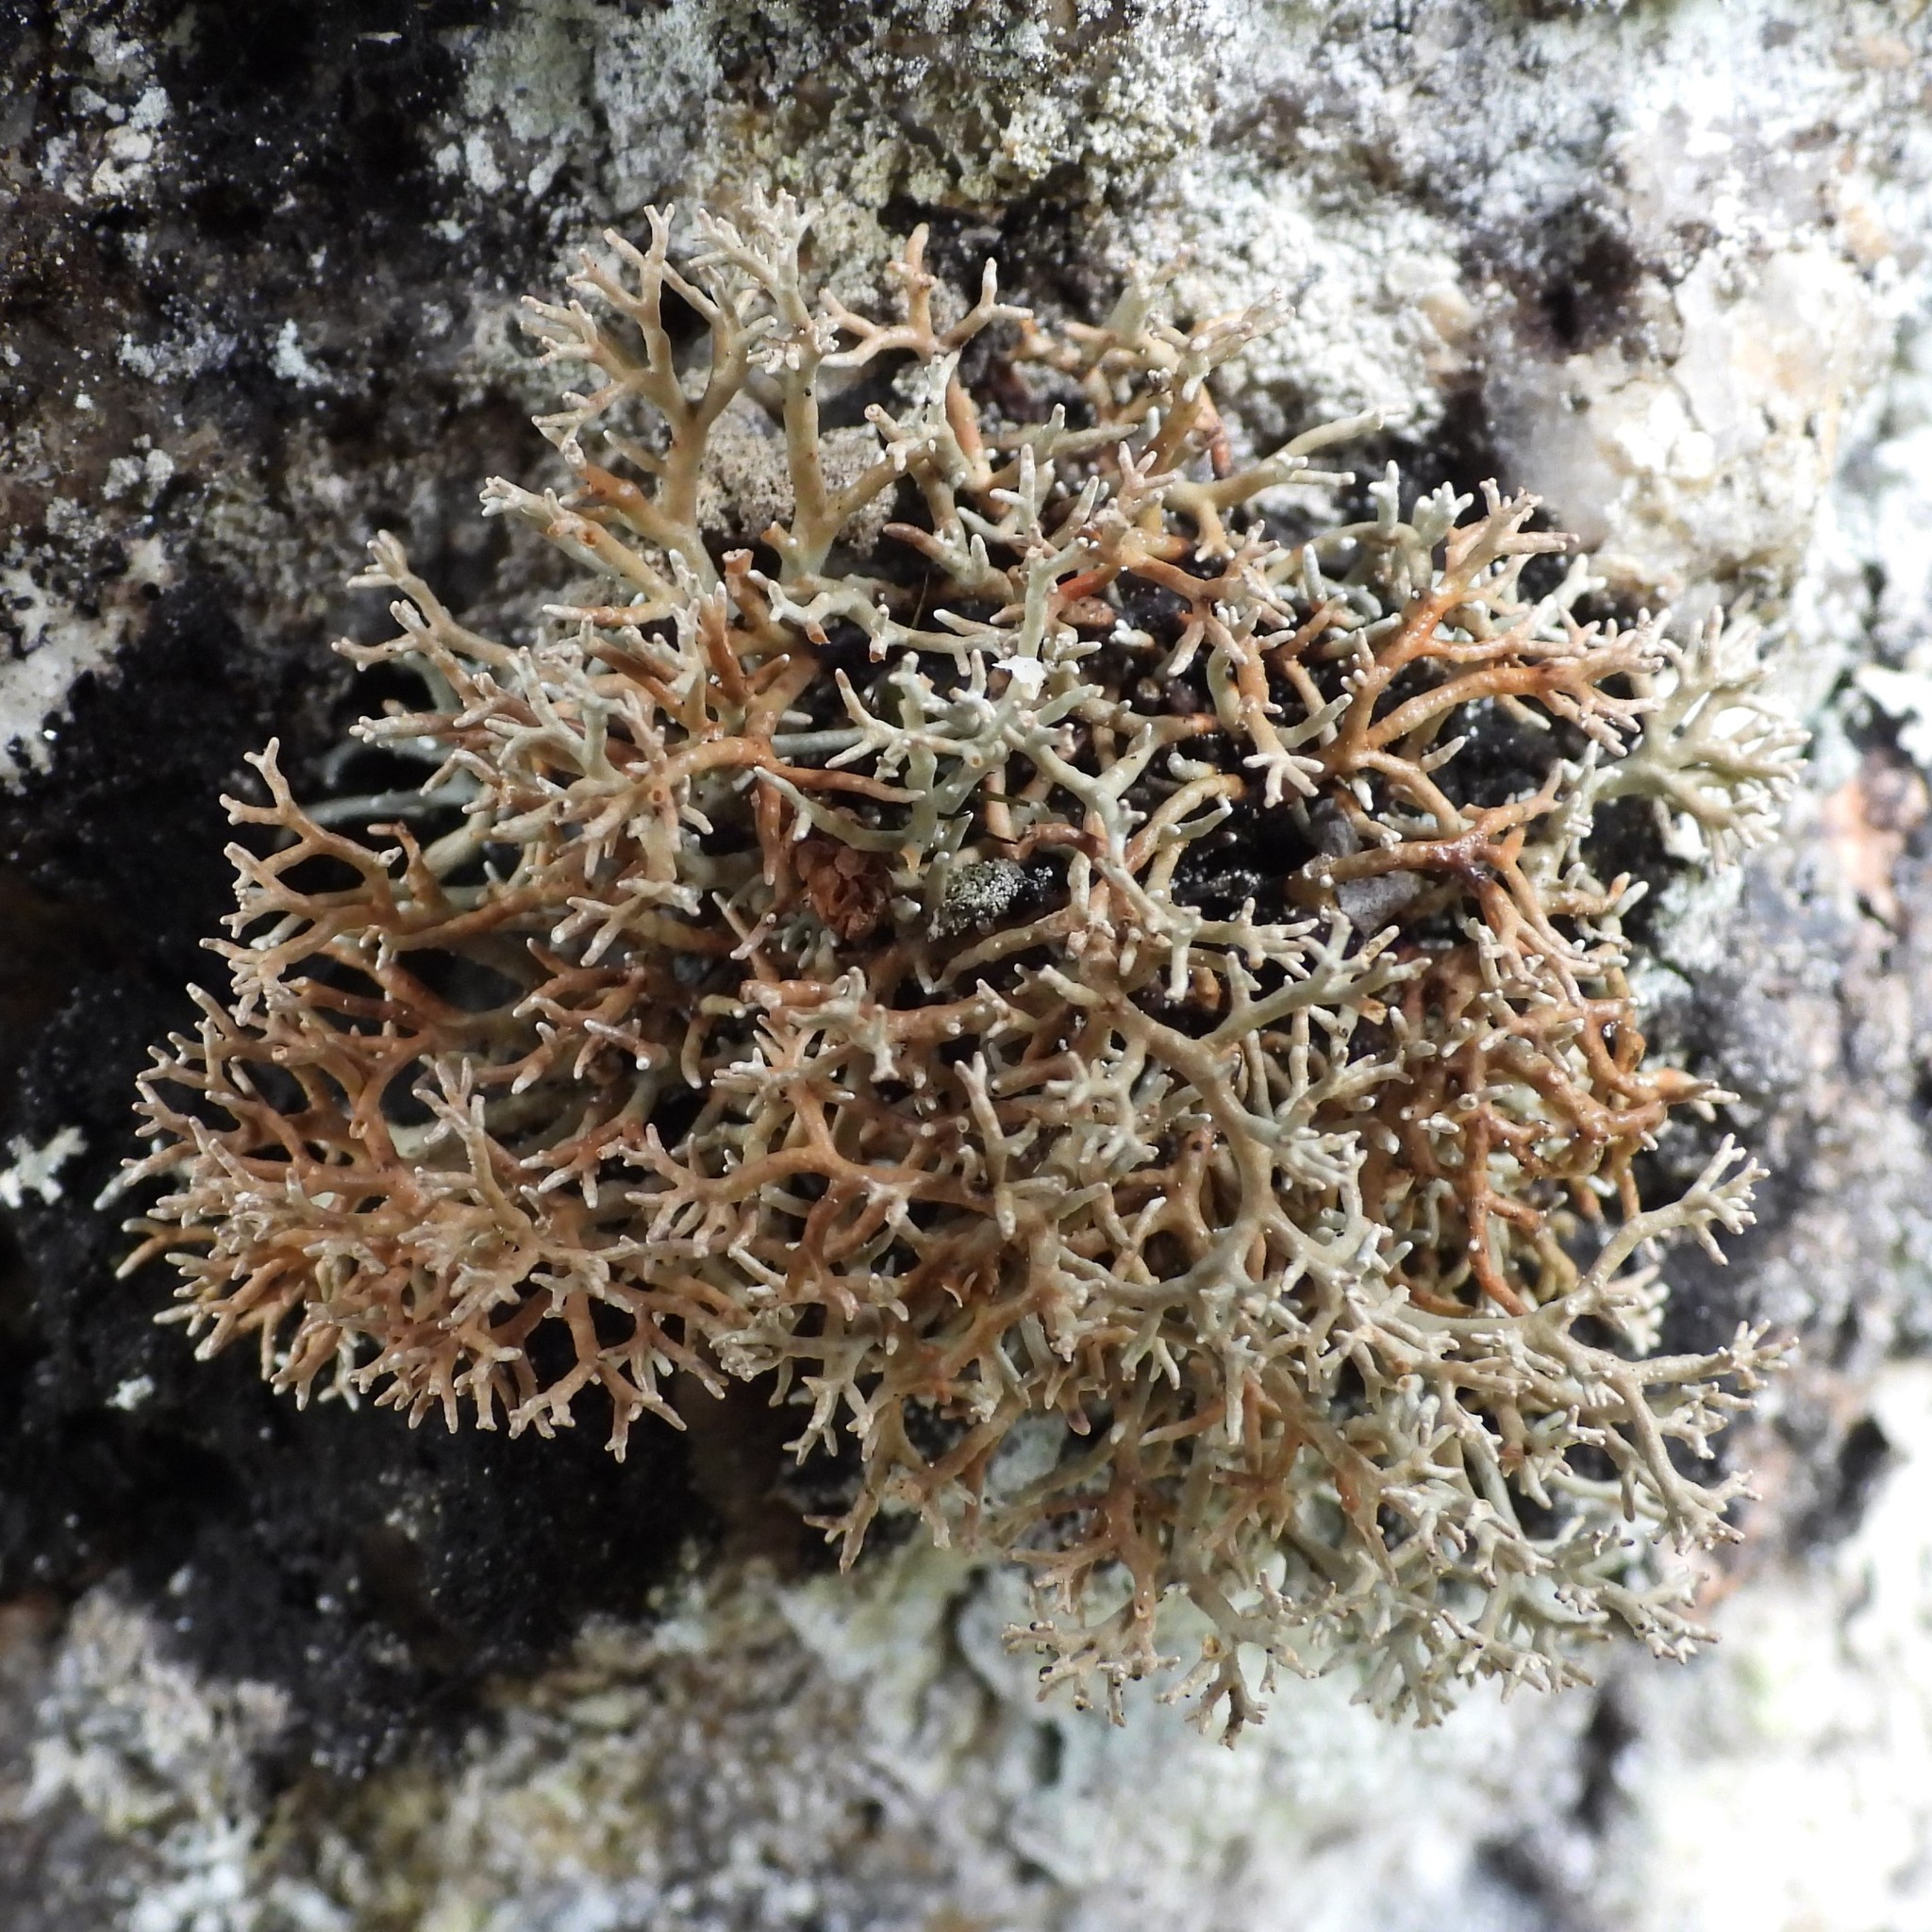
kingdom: Fungi
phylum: Ascomycota
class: Lecanoromycetes
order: Lecanorales
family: Sphaerophoraceae
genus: Sphaerophorus
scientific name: Sphaerophorus fragilis
